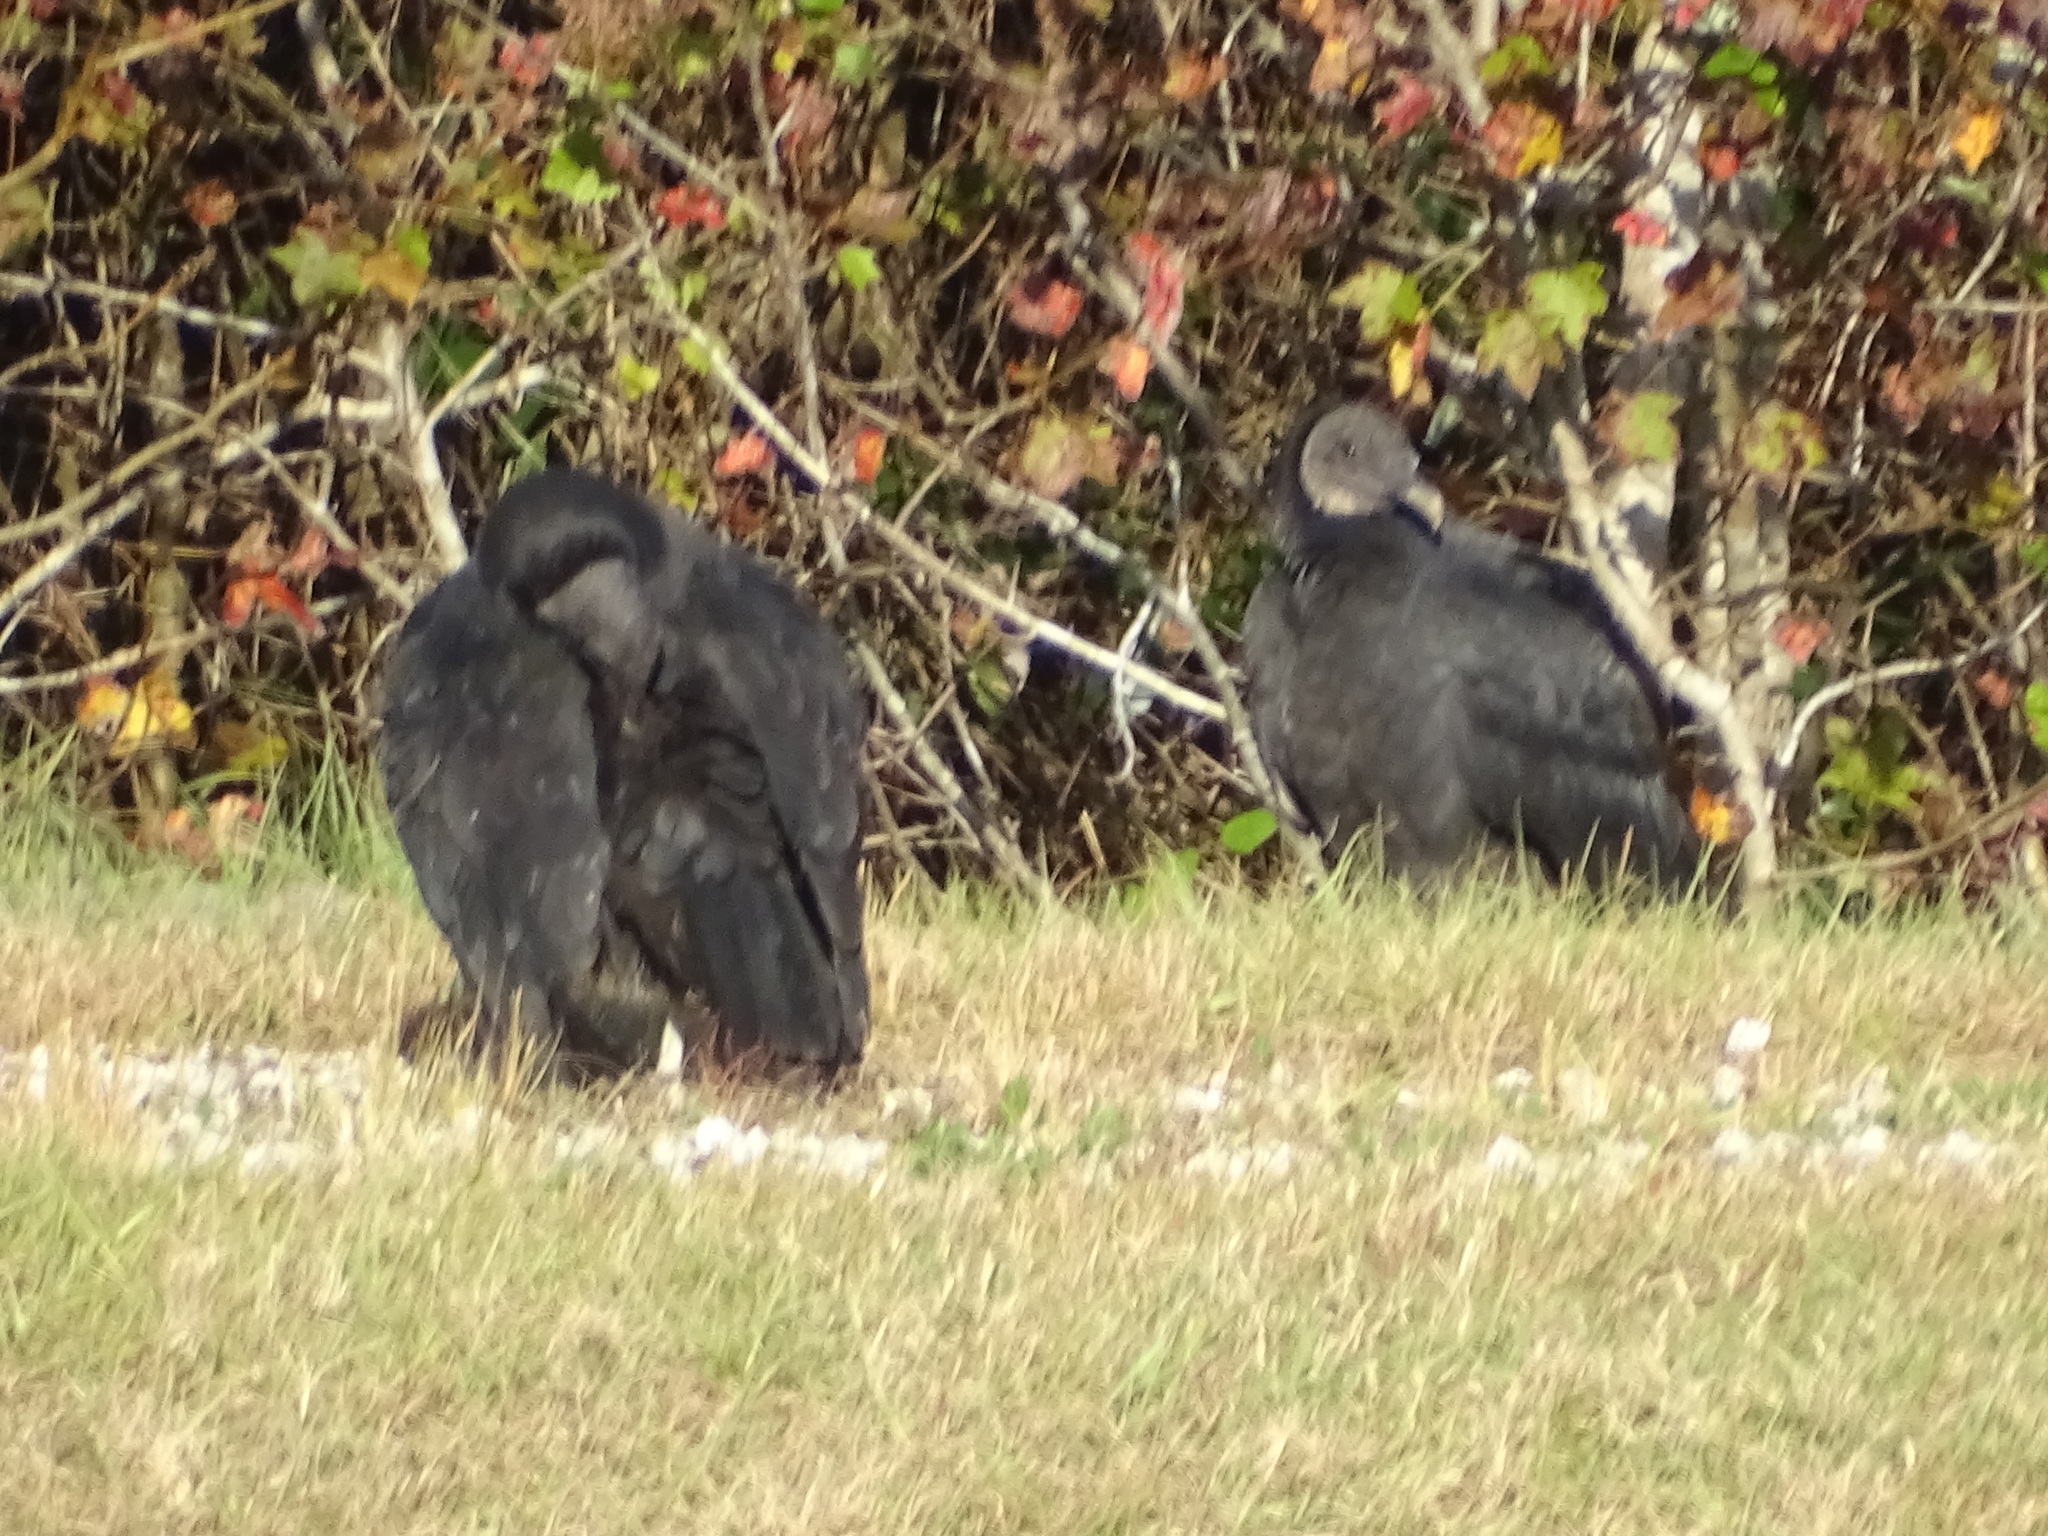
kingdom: Animalia
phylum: Chordata
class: Aves
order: Accipitriformes
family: Cathartidae
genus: Coragyps
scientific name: Coragyps atratus
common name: Black vulture
